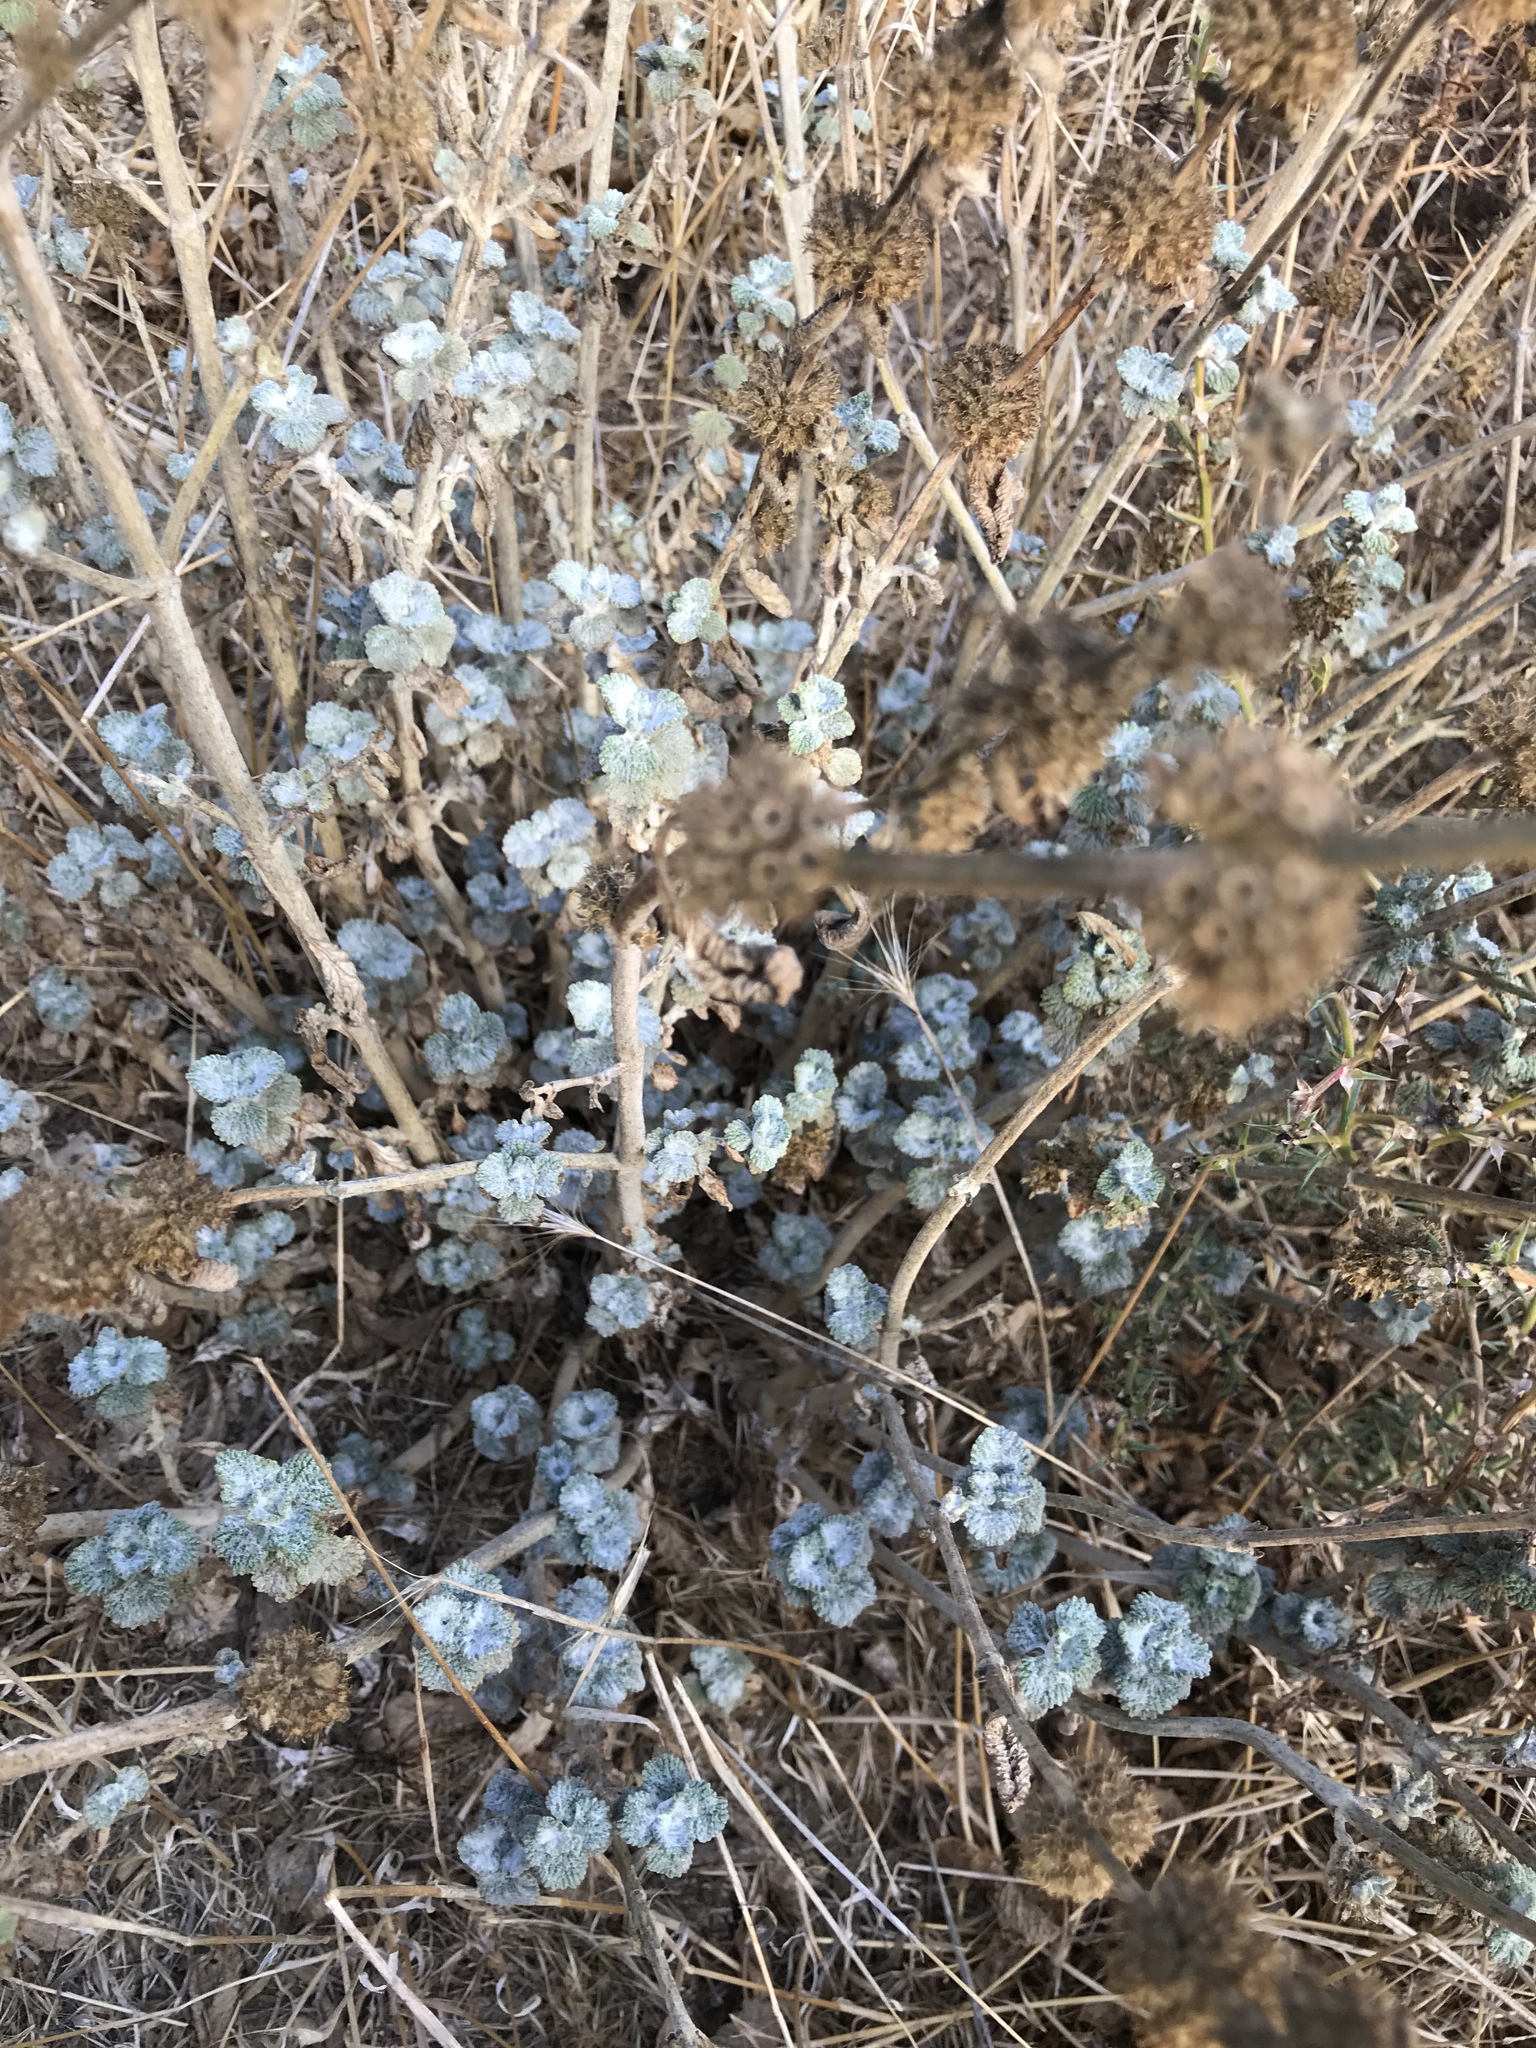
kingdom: Plantae
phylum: Tracheophyta
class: Magnoliopsida
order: Lamiales
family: Lamiaceae
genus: Marrubium
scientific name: Marrubium vulgare
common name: Horehound
